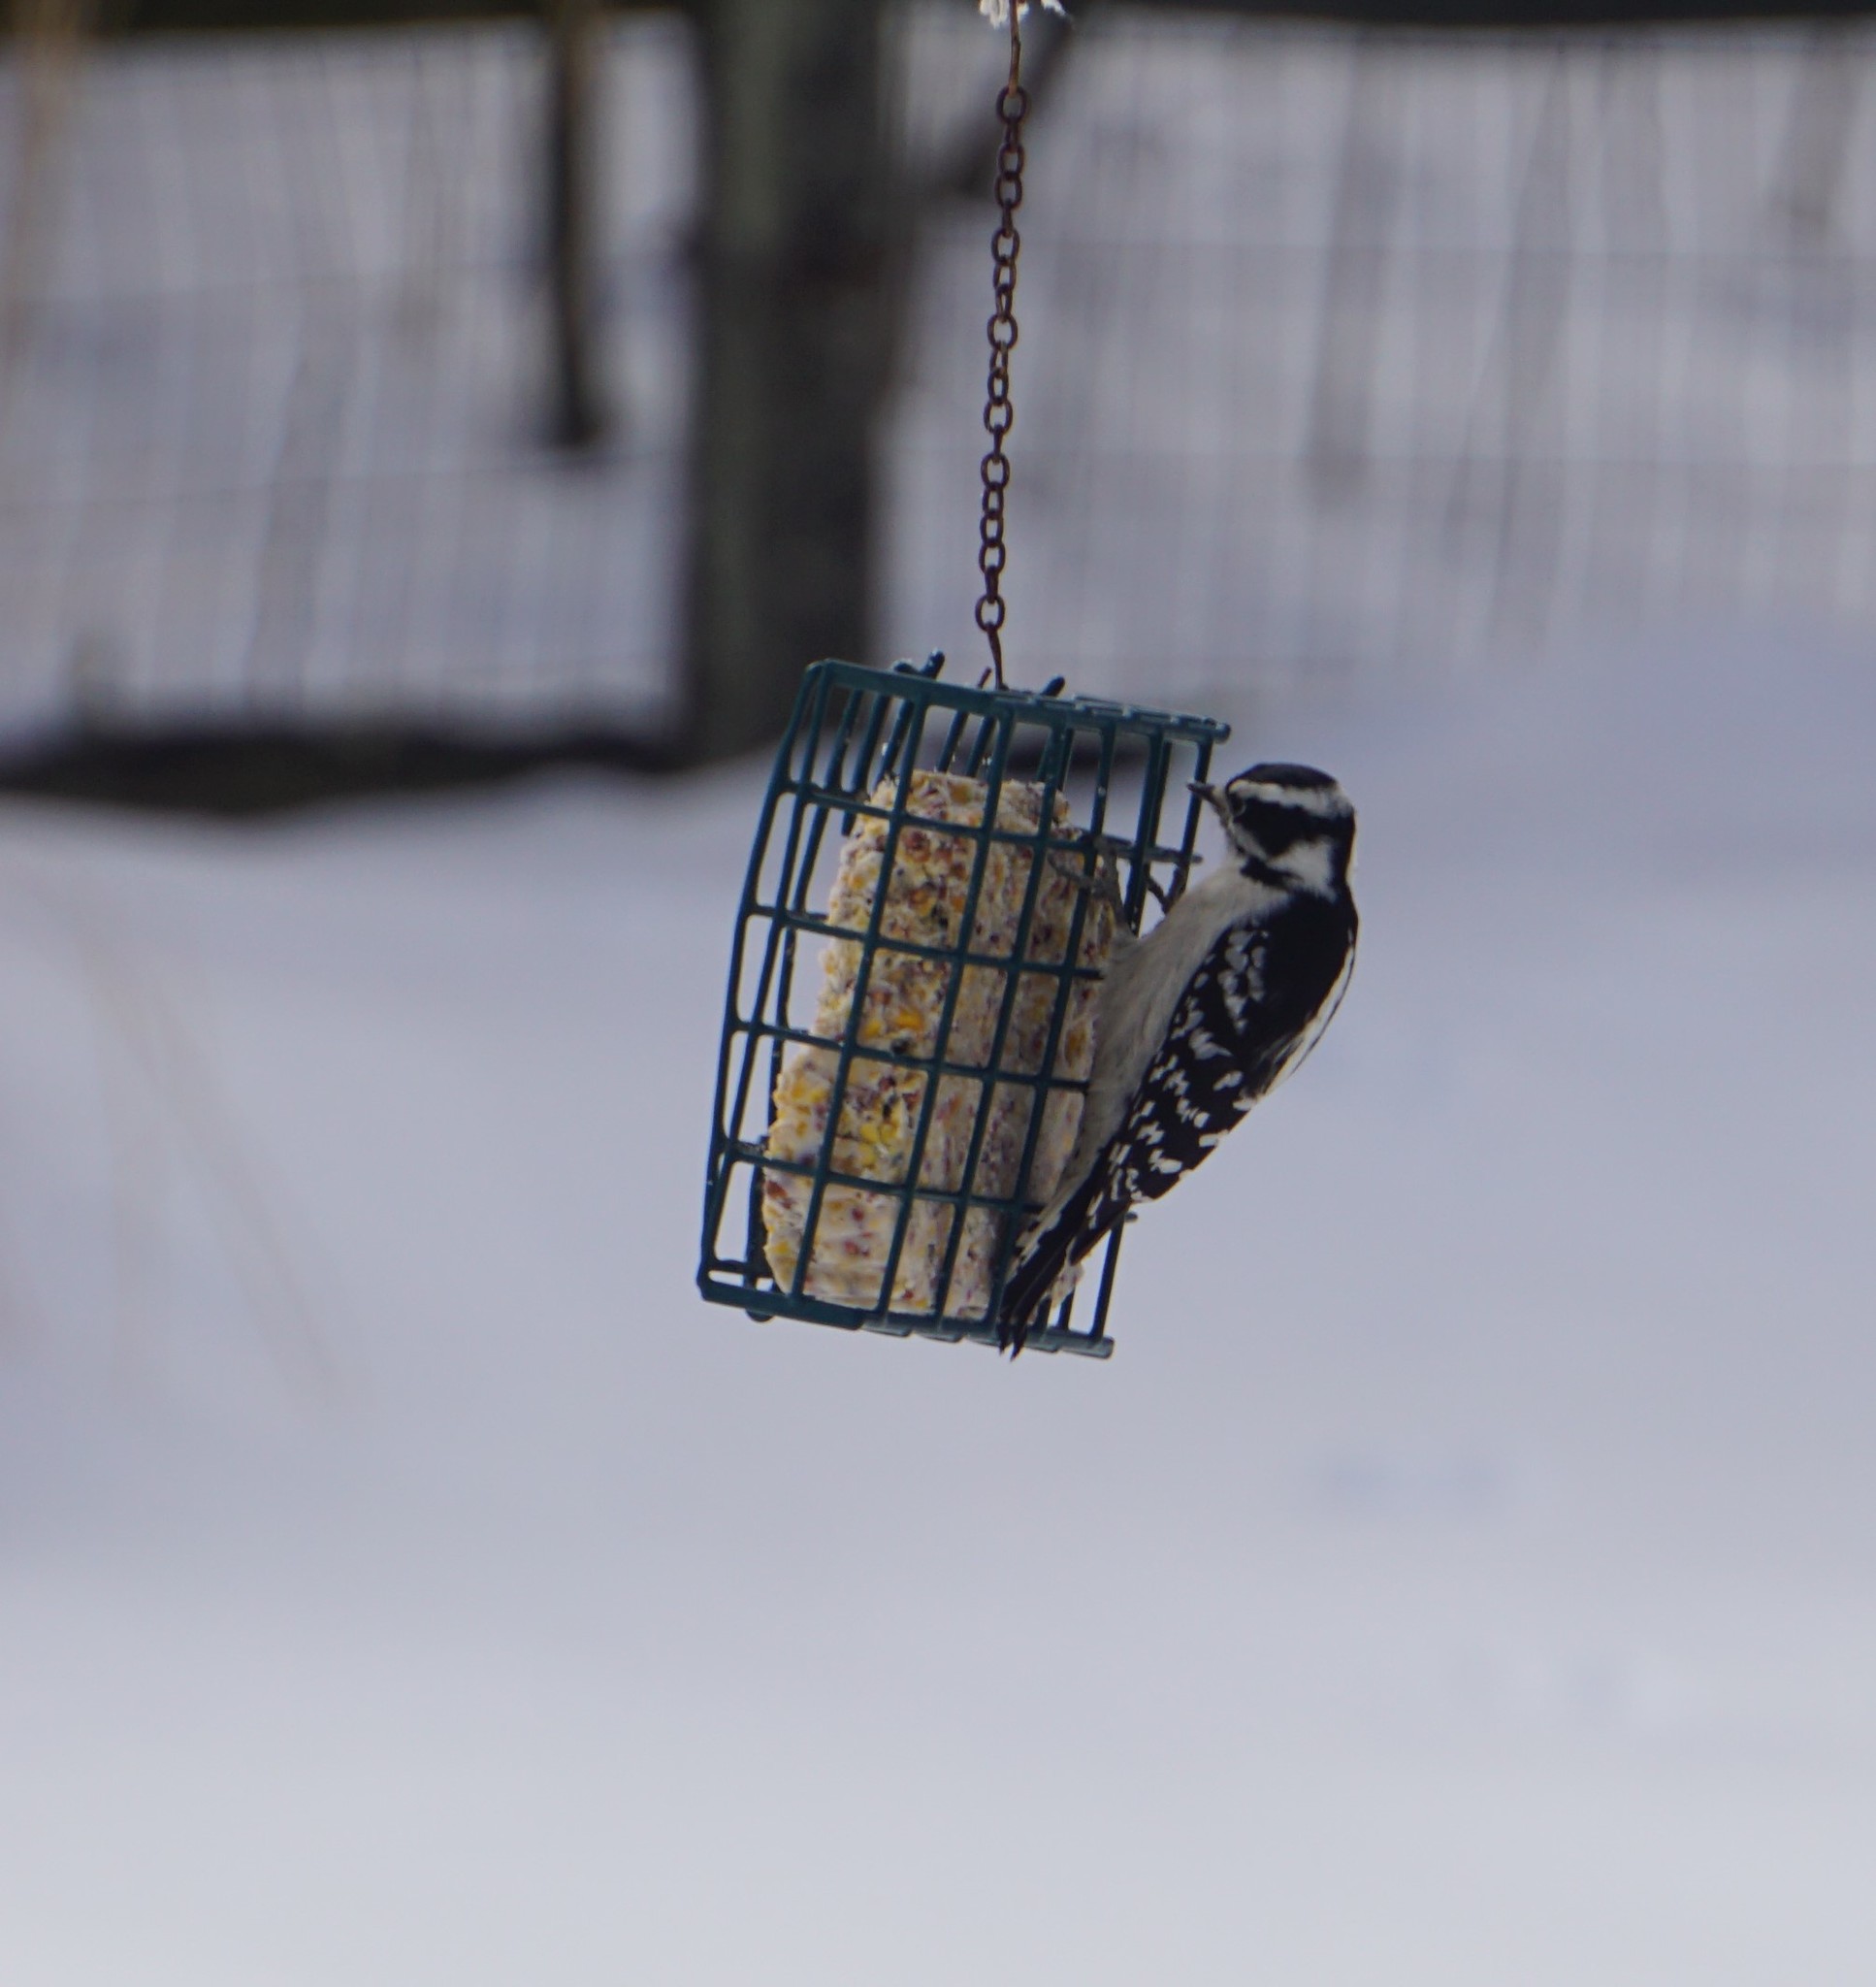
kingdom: Animalia
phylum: Chordata
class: Aves
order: Piciformes
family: Picidae
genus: Dryobates
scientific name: Dryobates pubescens
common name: Downy woodpecker
